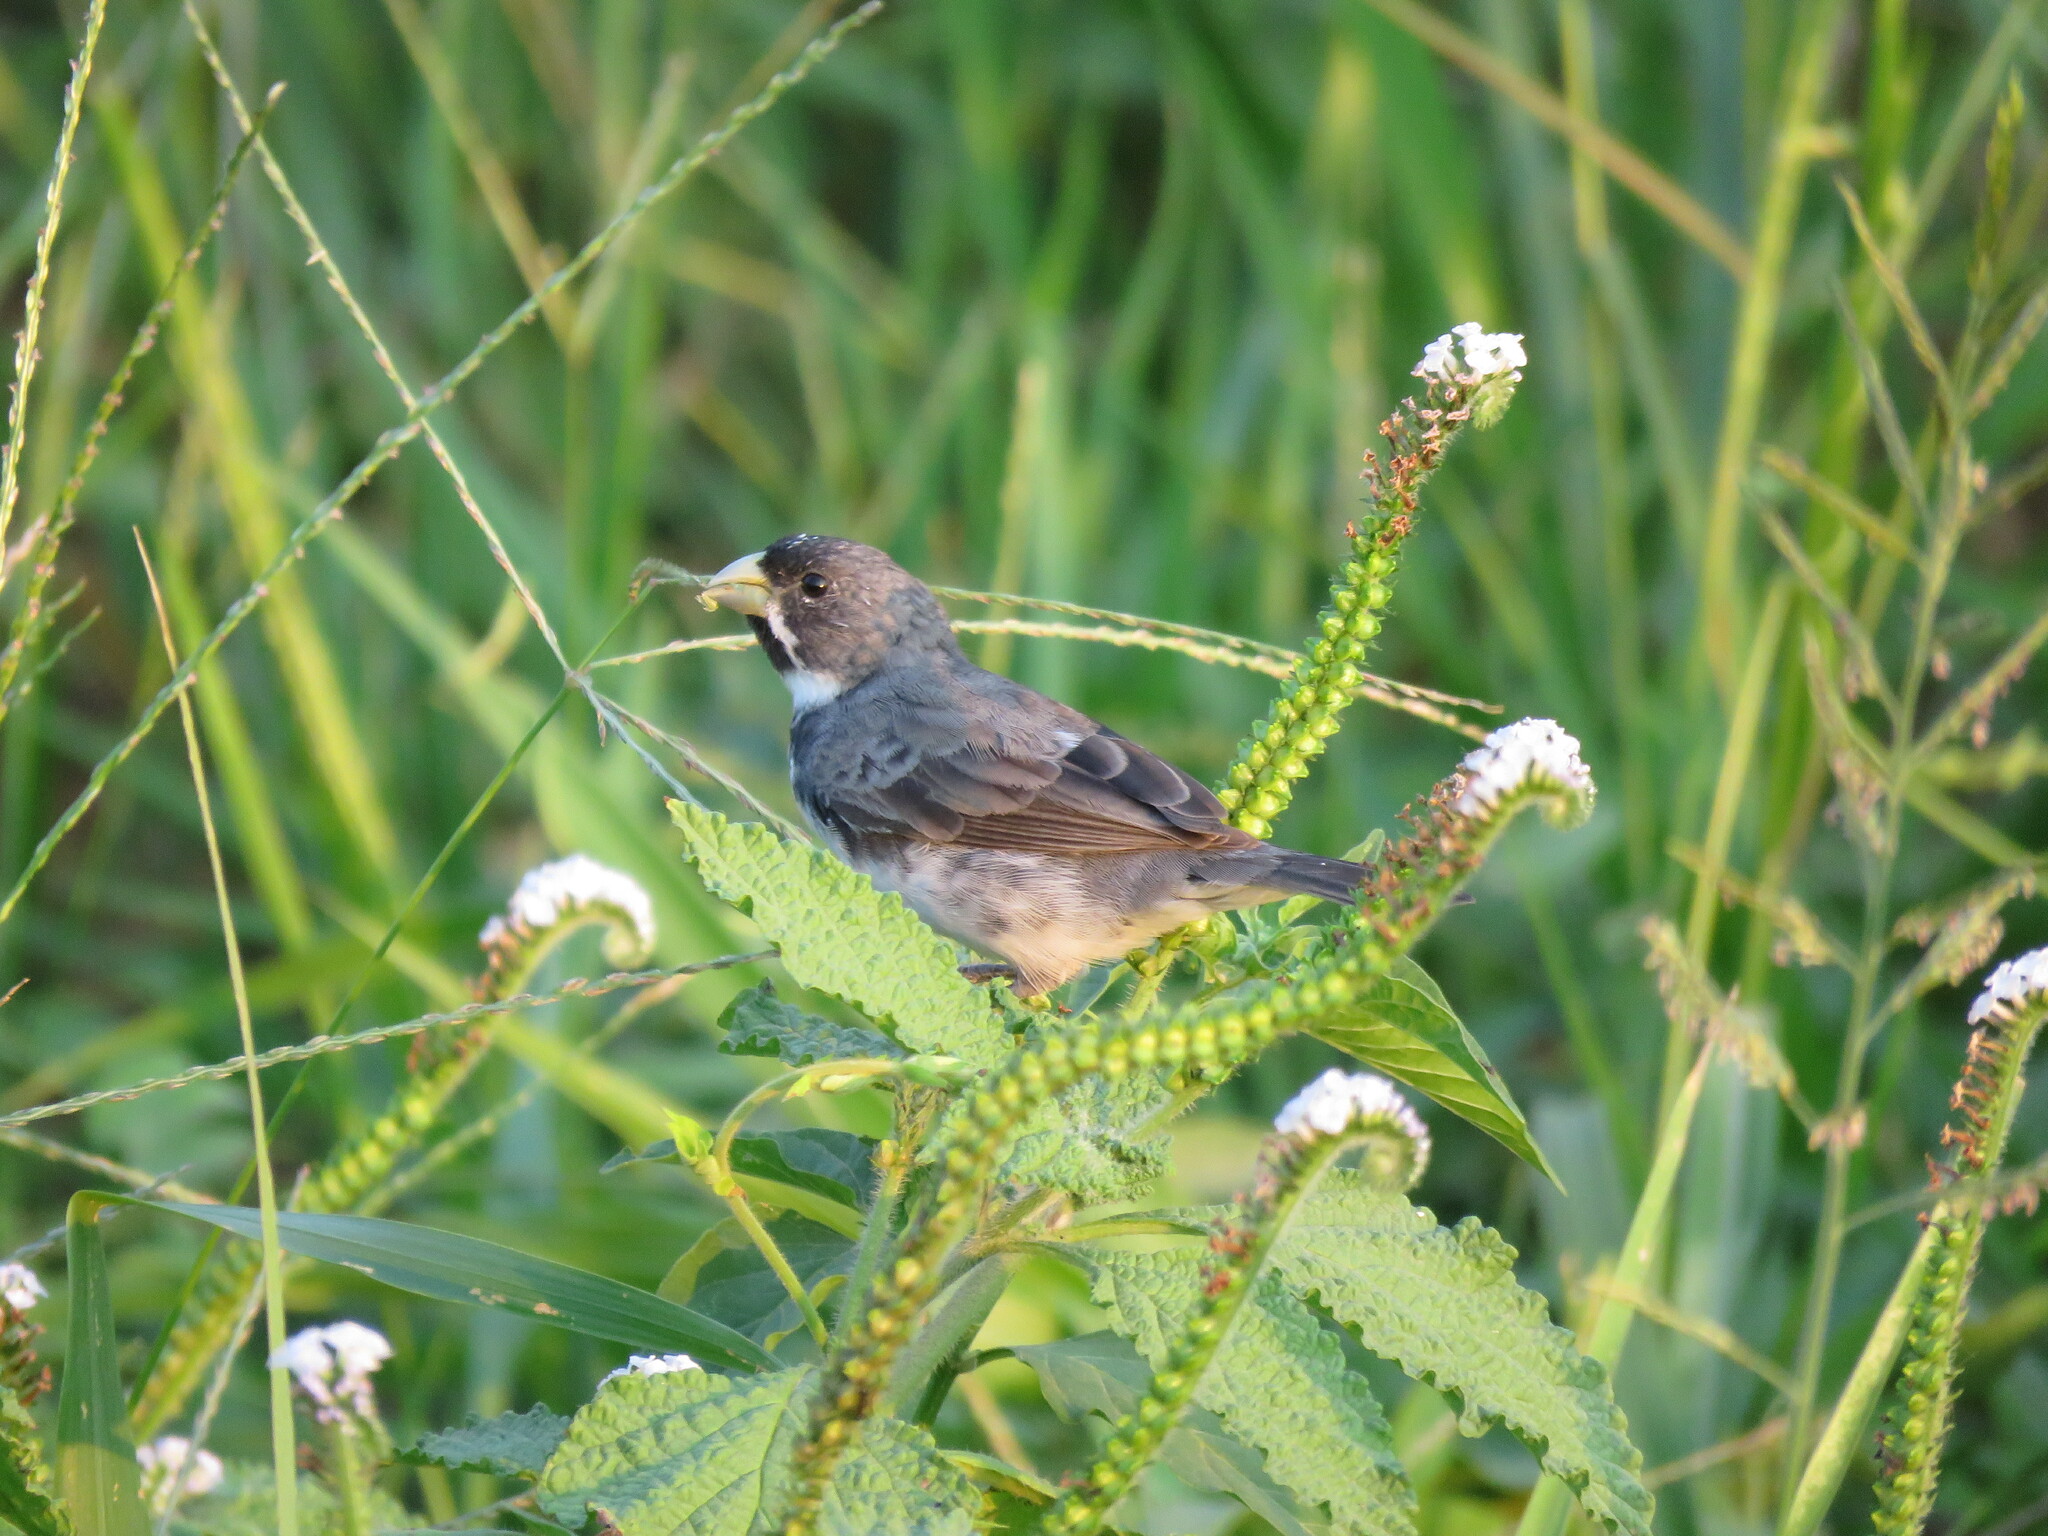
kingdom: Animalia
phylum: Chordata
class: Aves
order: Passeriformes
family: Thraupidae
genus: Sporophila
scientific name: Sporophila caerulescens
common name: Double-collared seedeater
